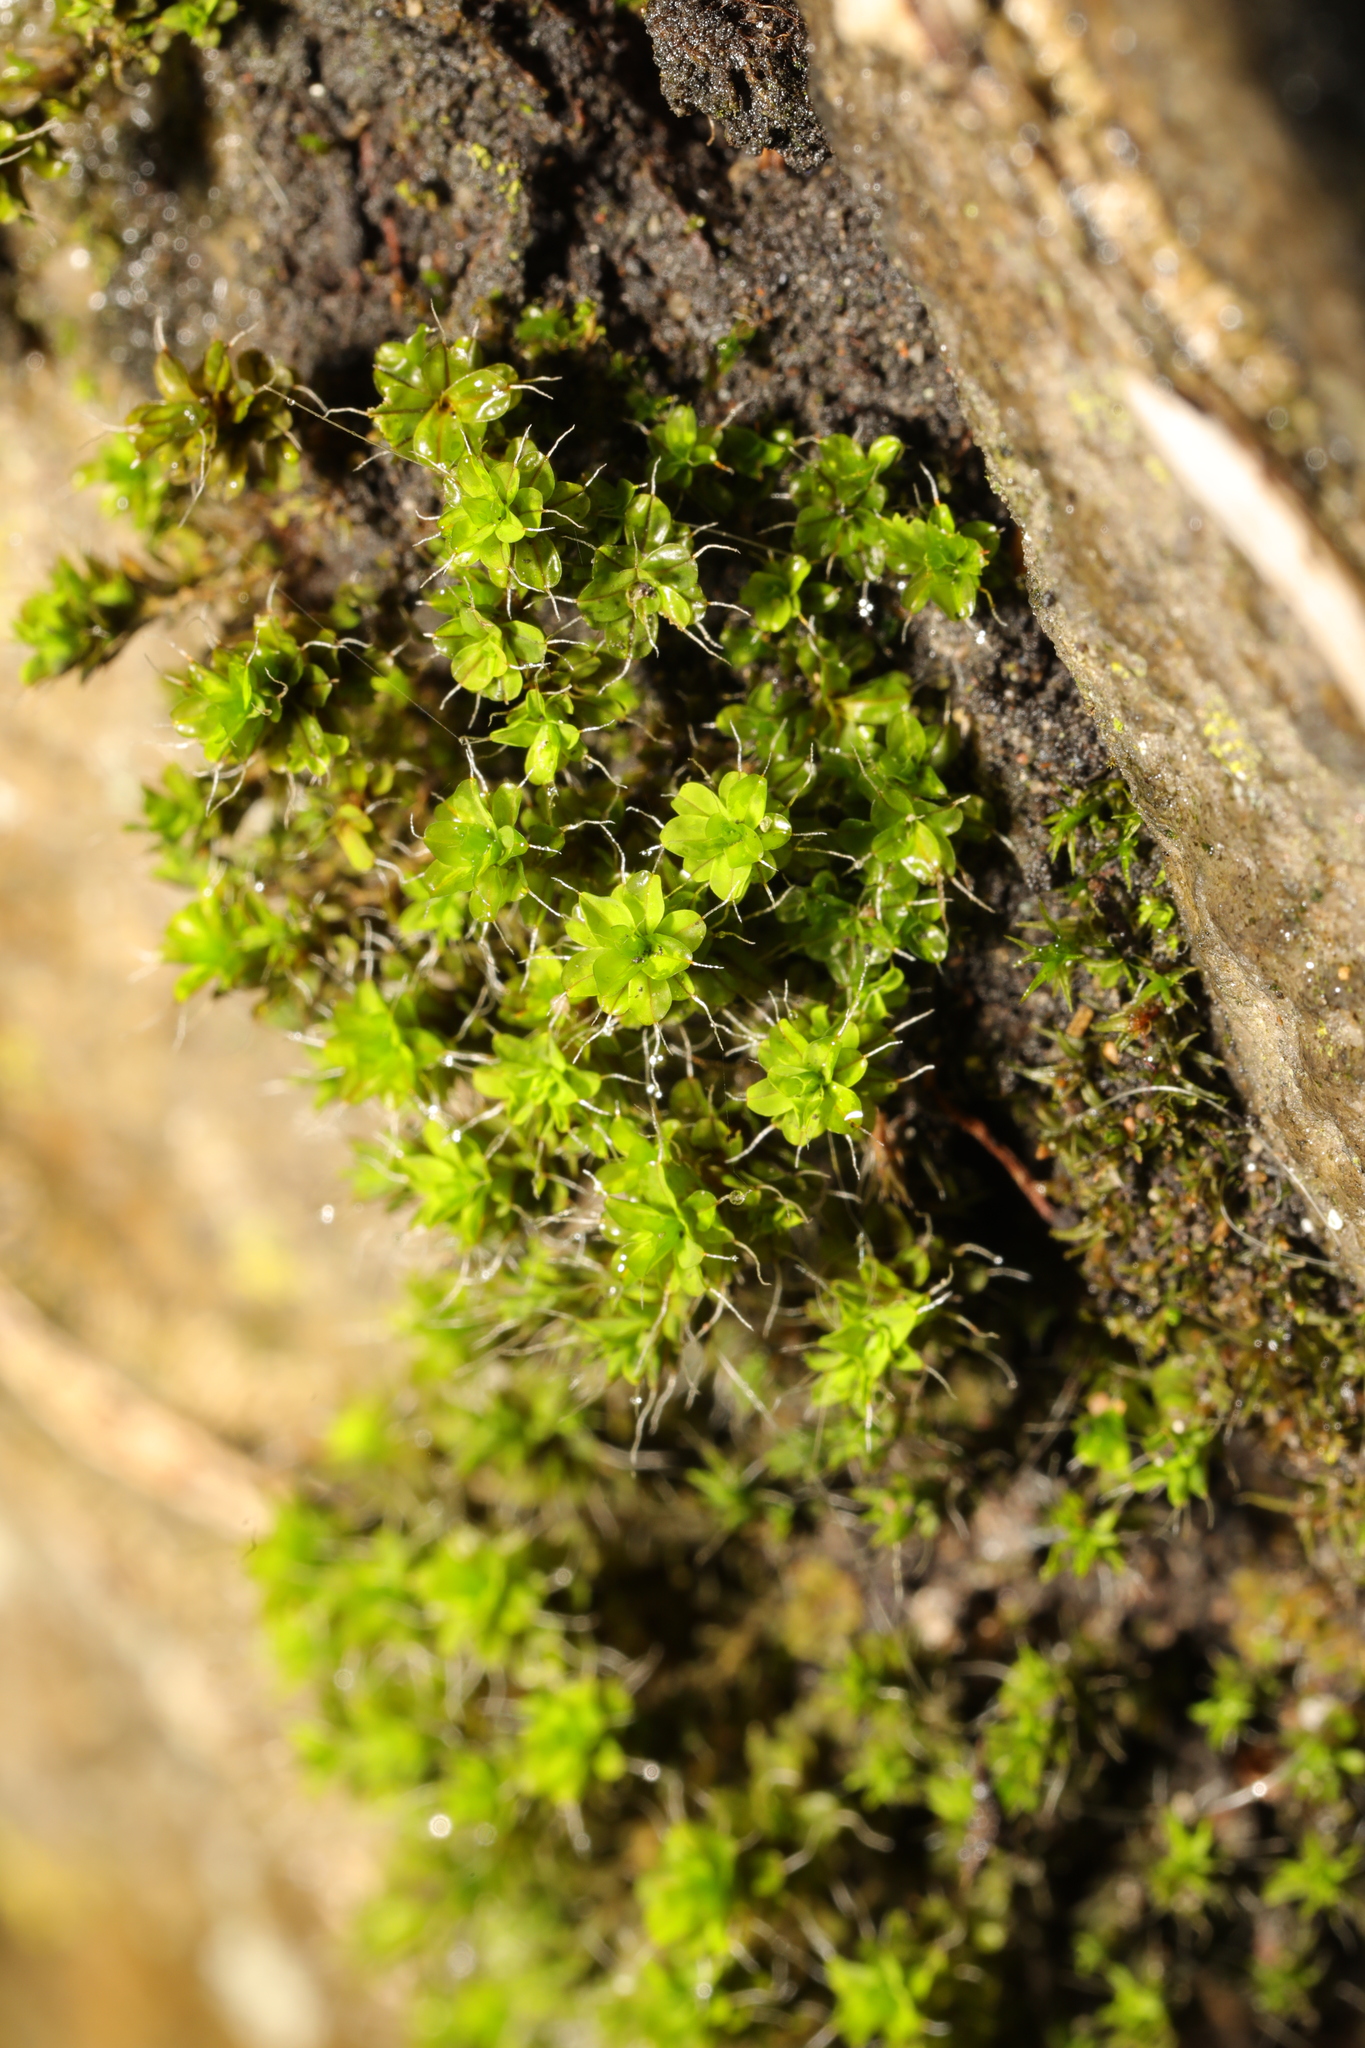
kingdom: Plantae
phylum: Bryophyta
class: Bryopsida
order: Pottiales
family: Pottiaceae
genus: Syntrichia
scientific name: Syntrichia montana
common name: Intermediate screw-moss
